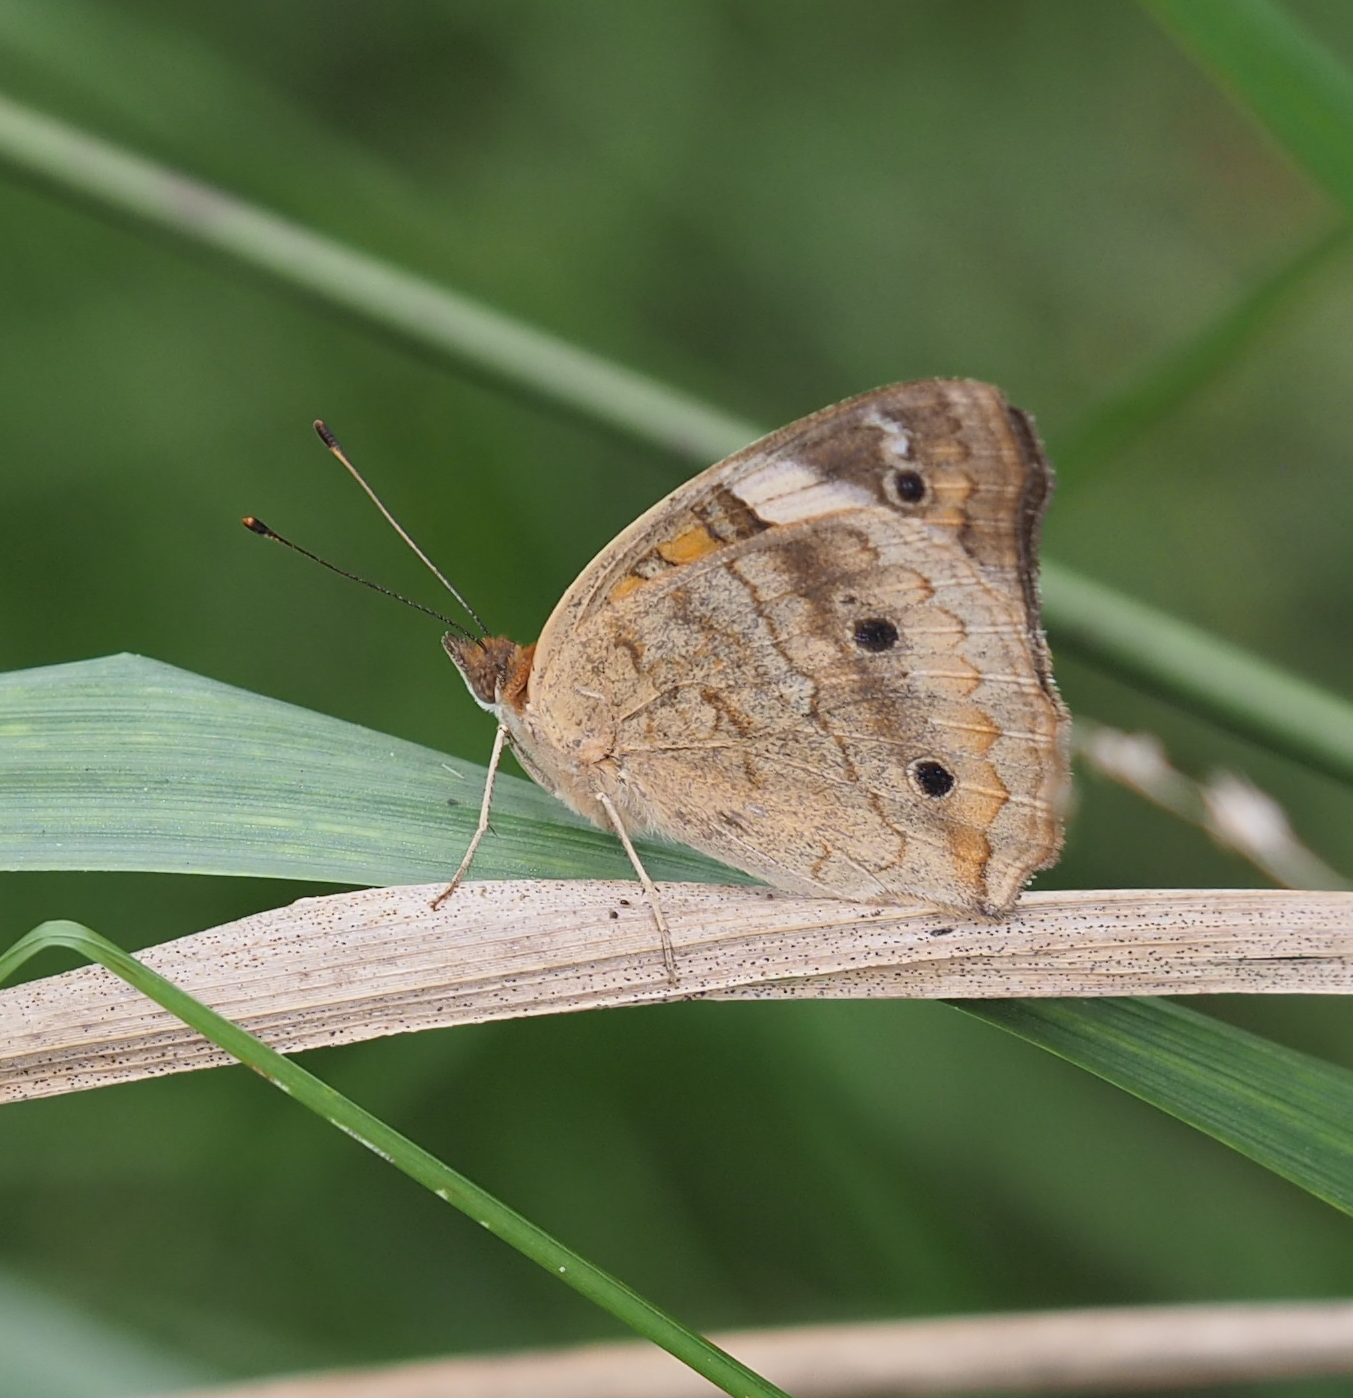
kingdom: Animalia
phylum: Arthropoda
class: Insecta
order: Lepidoptera
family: Nymphalidae
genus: Junonia
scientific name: Junonia coenia
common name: Common buckeye
